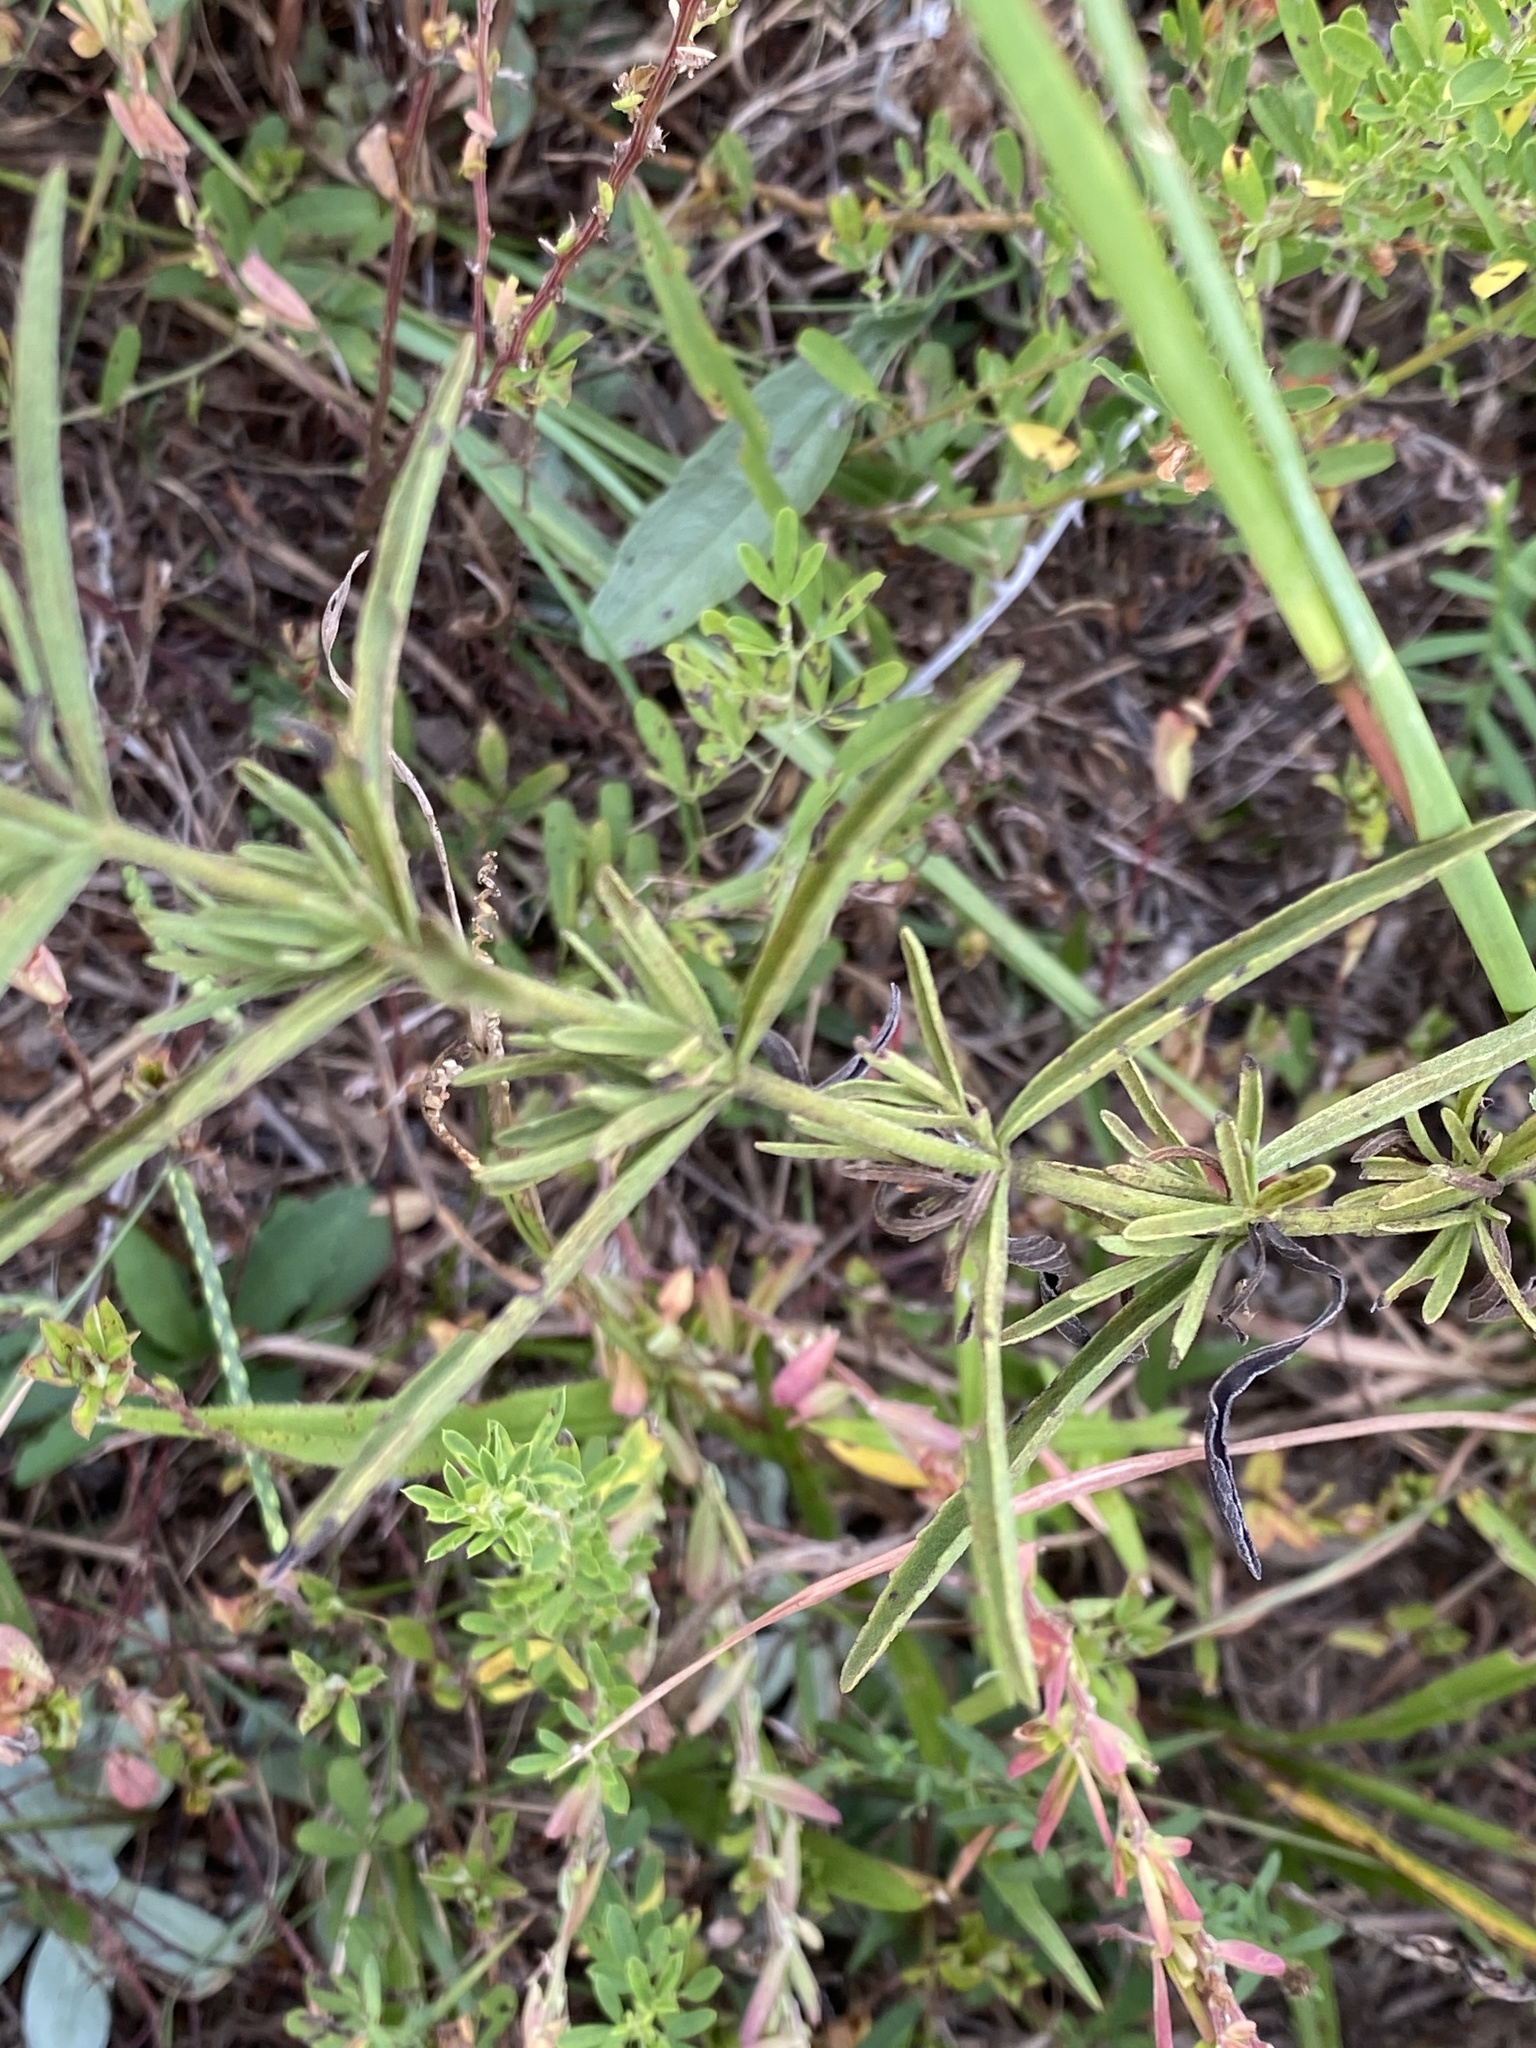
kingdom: Plantae
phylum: Tracheophyta
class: Magnoliopsida
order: Asterales
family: Asteraceae
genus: Eupatorium
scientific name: Eupatorium torreyanum
